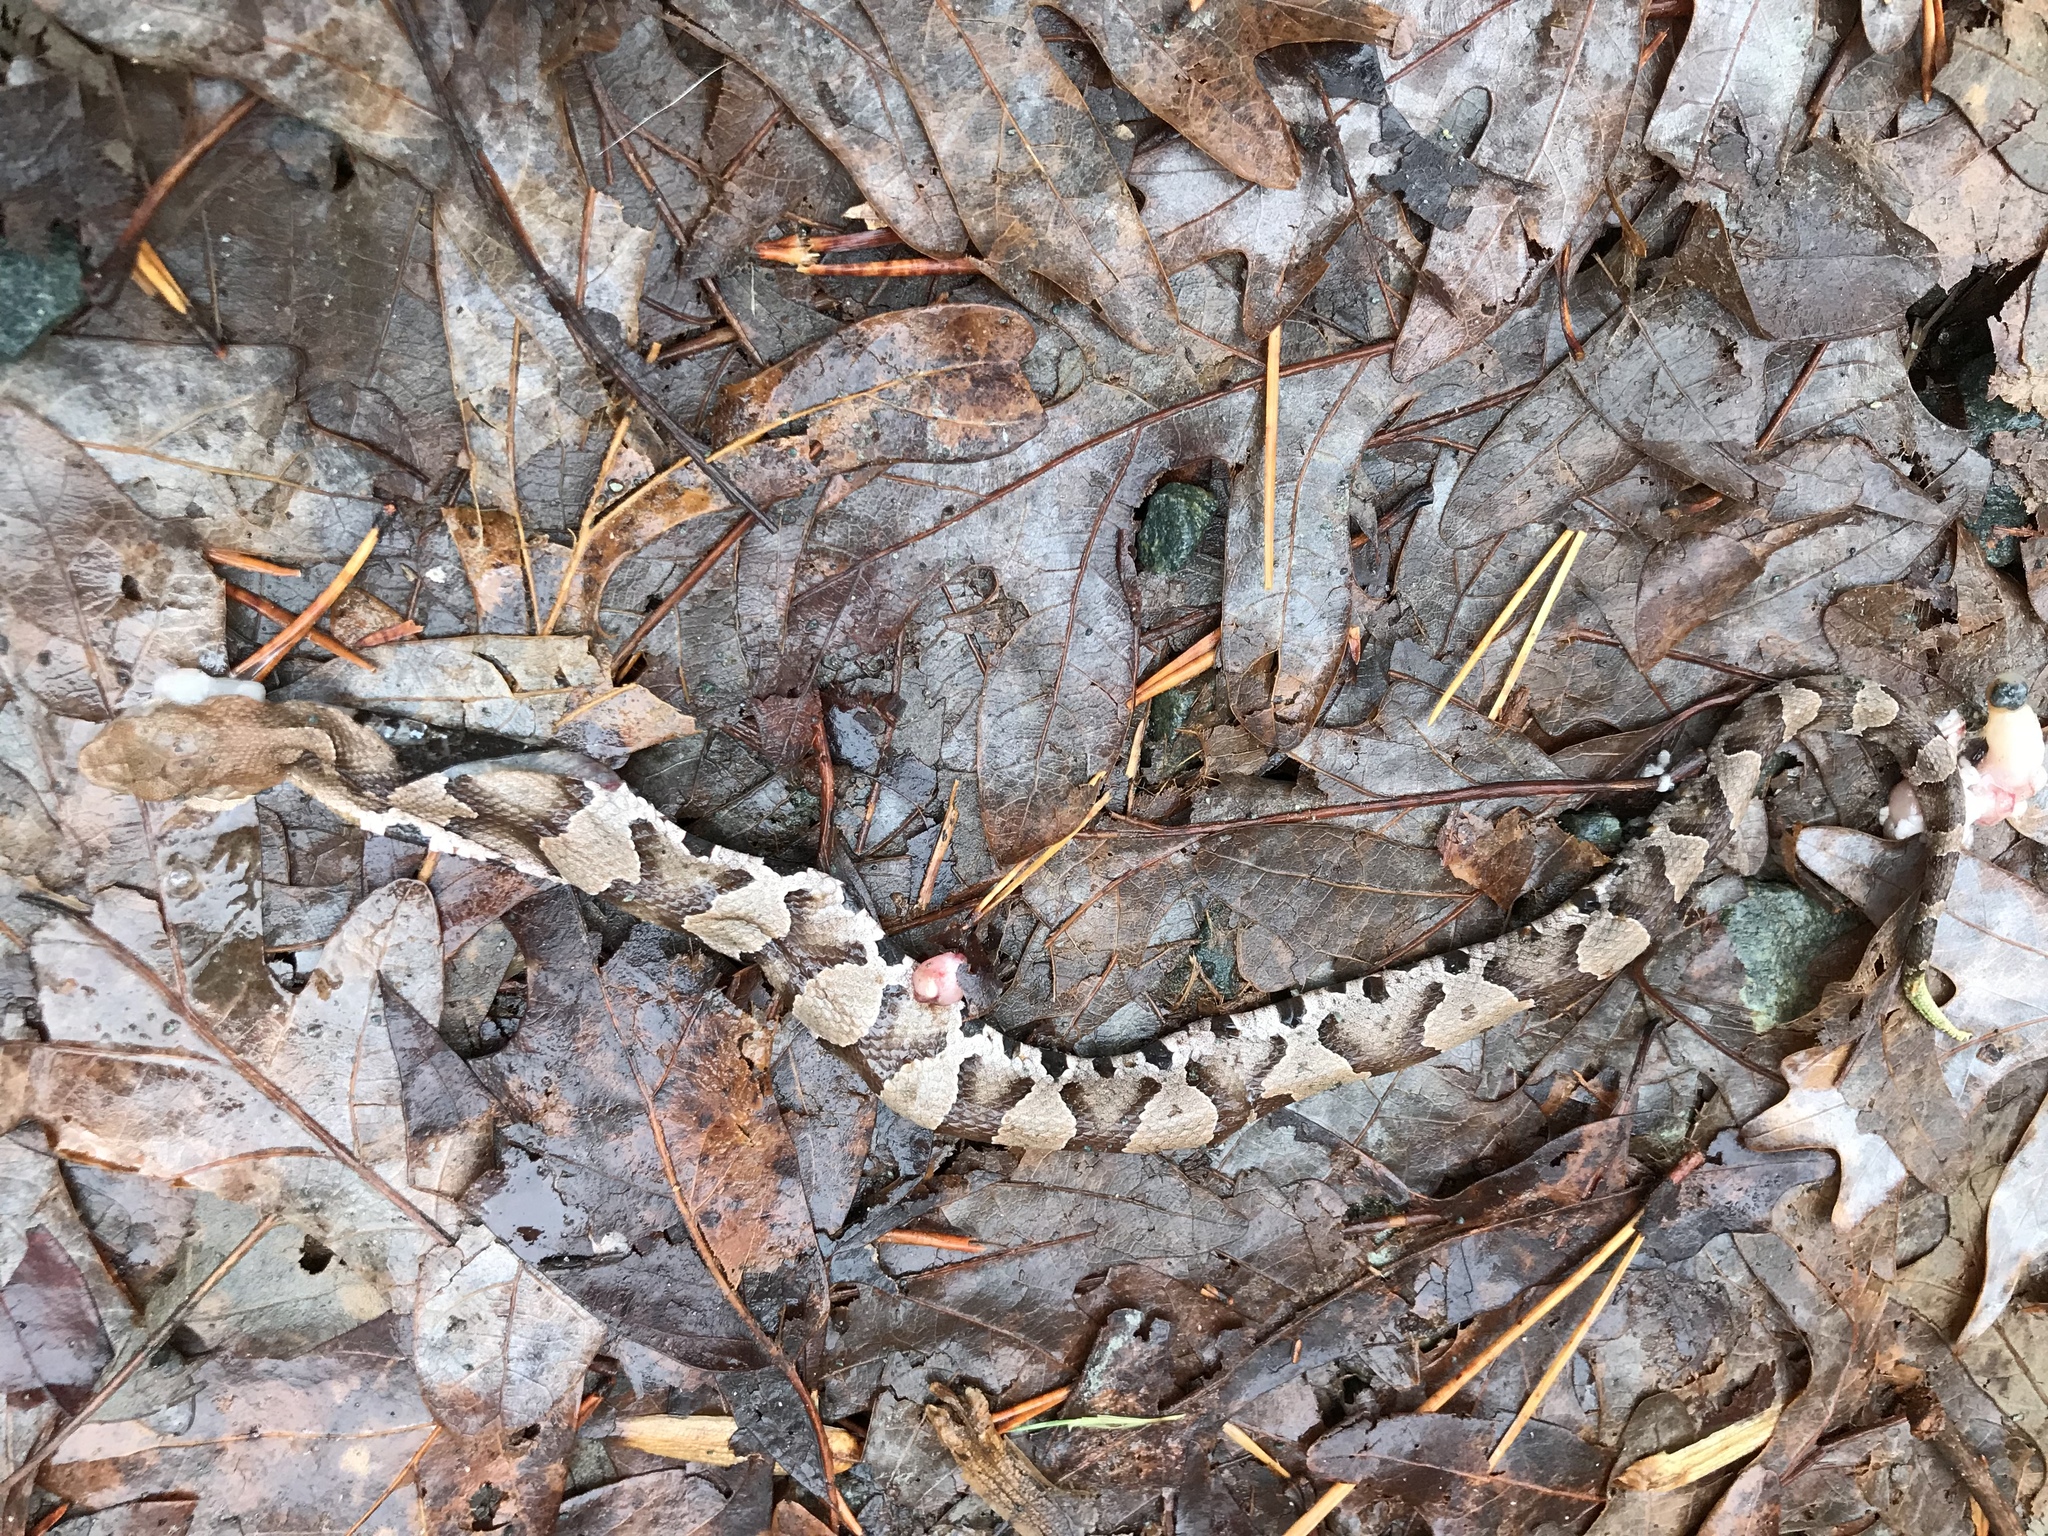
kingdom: Animalia
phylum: Chordata
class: Squamata
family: Viperidae
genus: Agkistrodon
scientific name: Agkistrodon contortrix
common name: Northern copperhead
